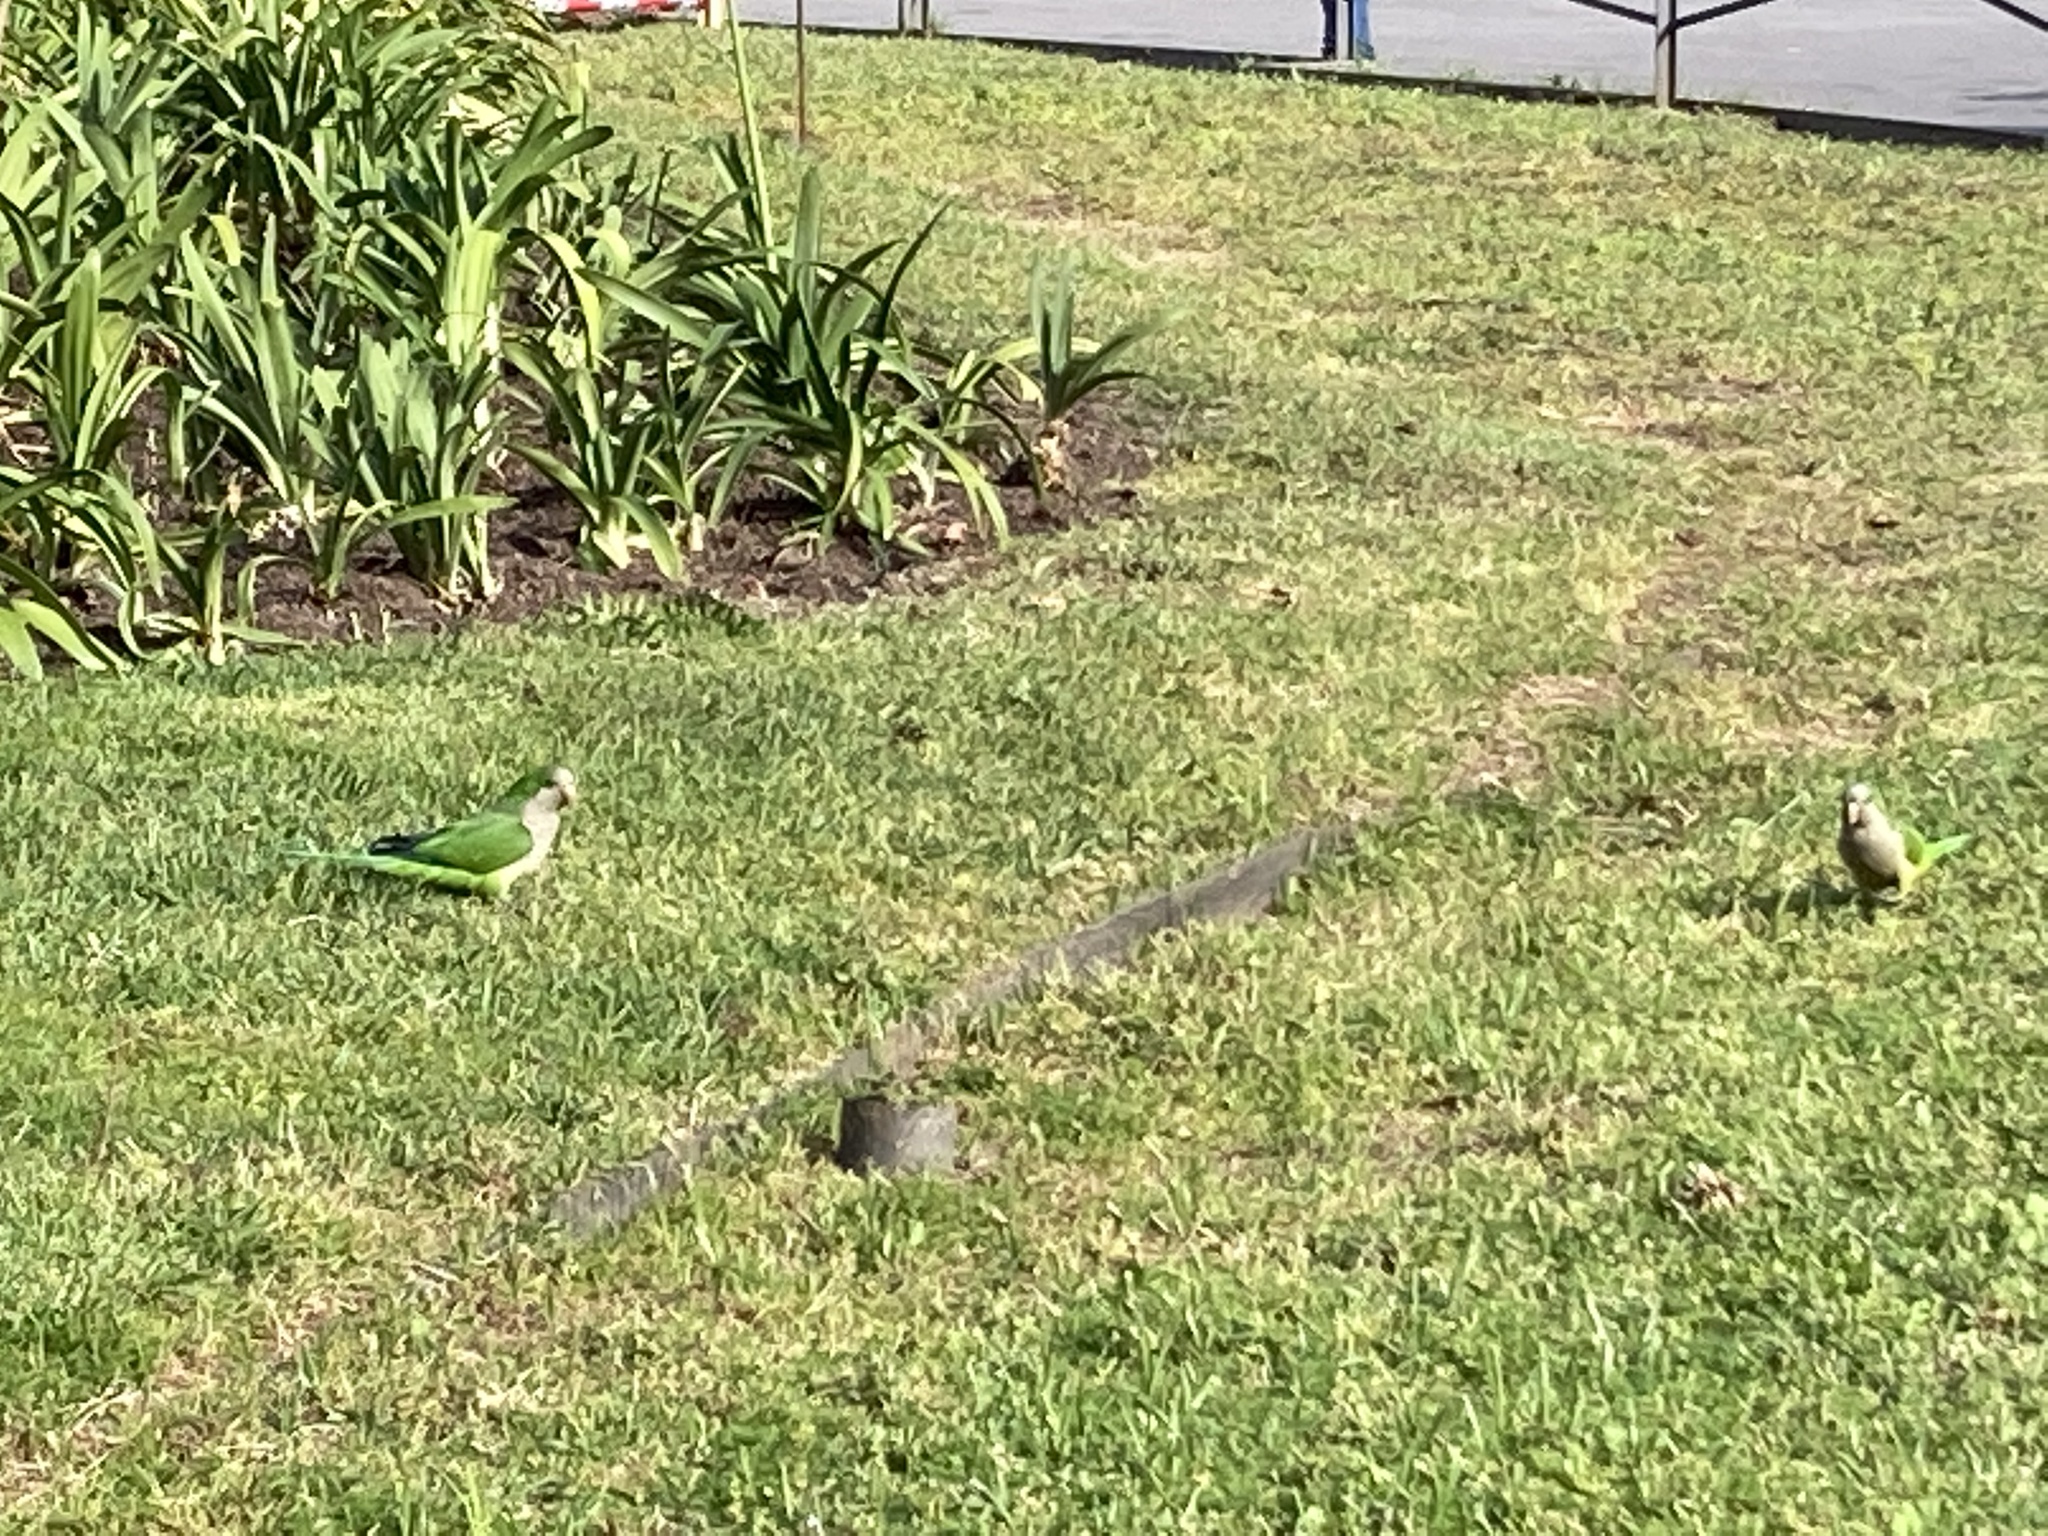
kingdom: Animalia
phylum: Chordata
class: Aves
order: Psittaciformes
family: Psittacidae
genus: Myiopsitta
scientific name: Myiopsitta monachus
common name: Monk parakeet
